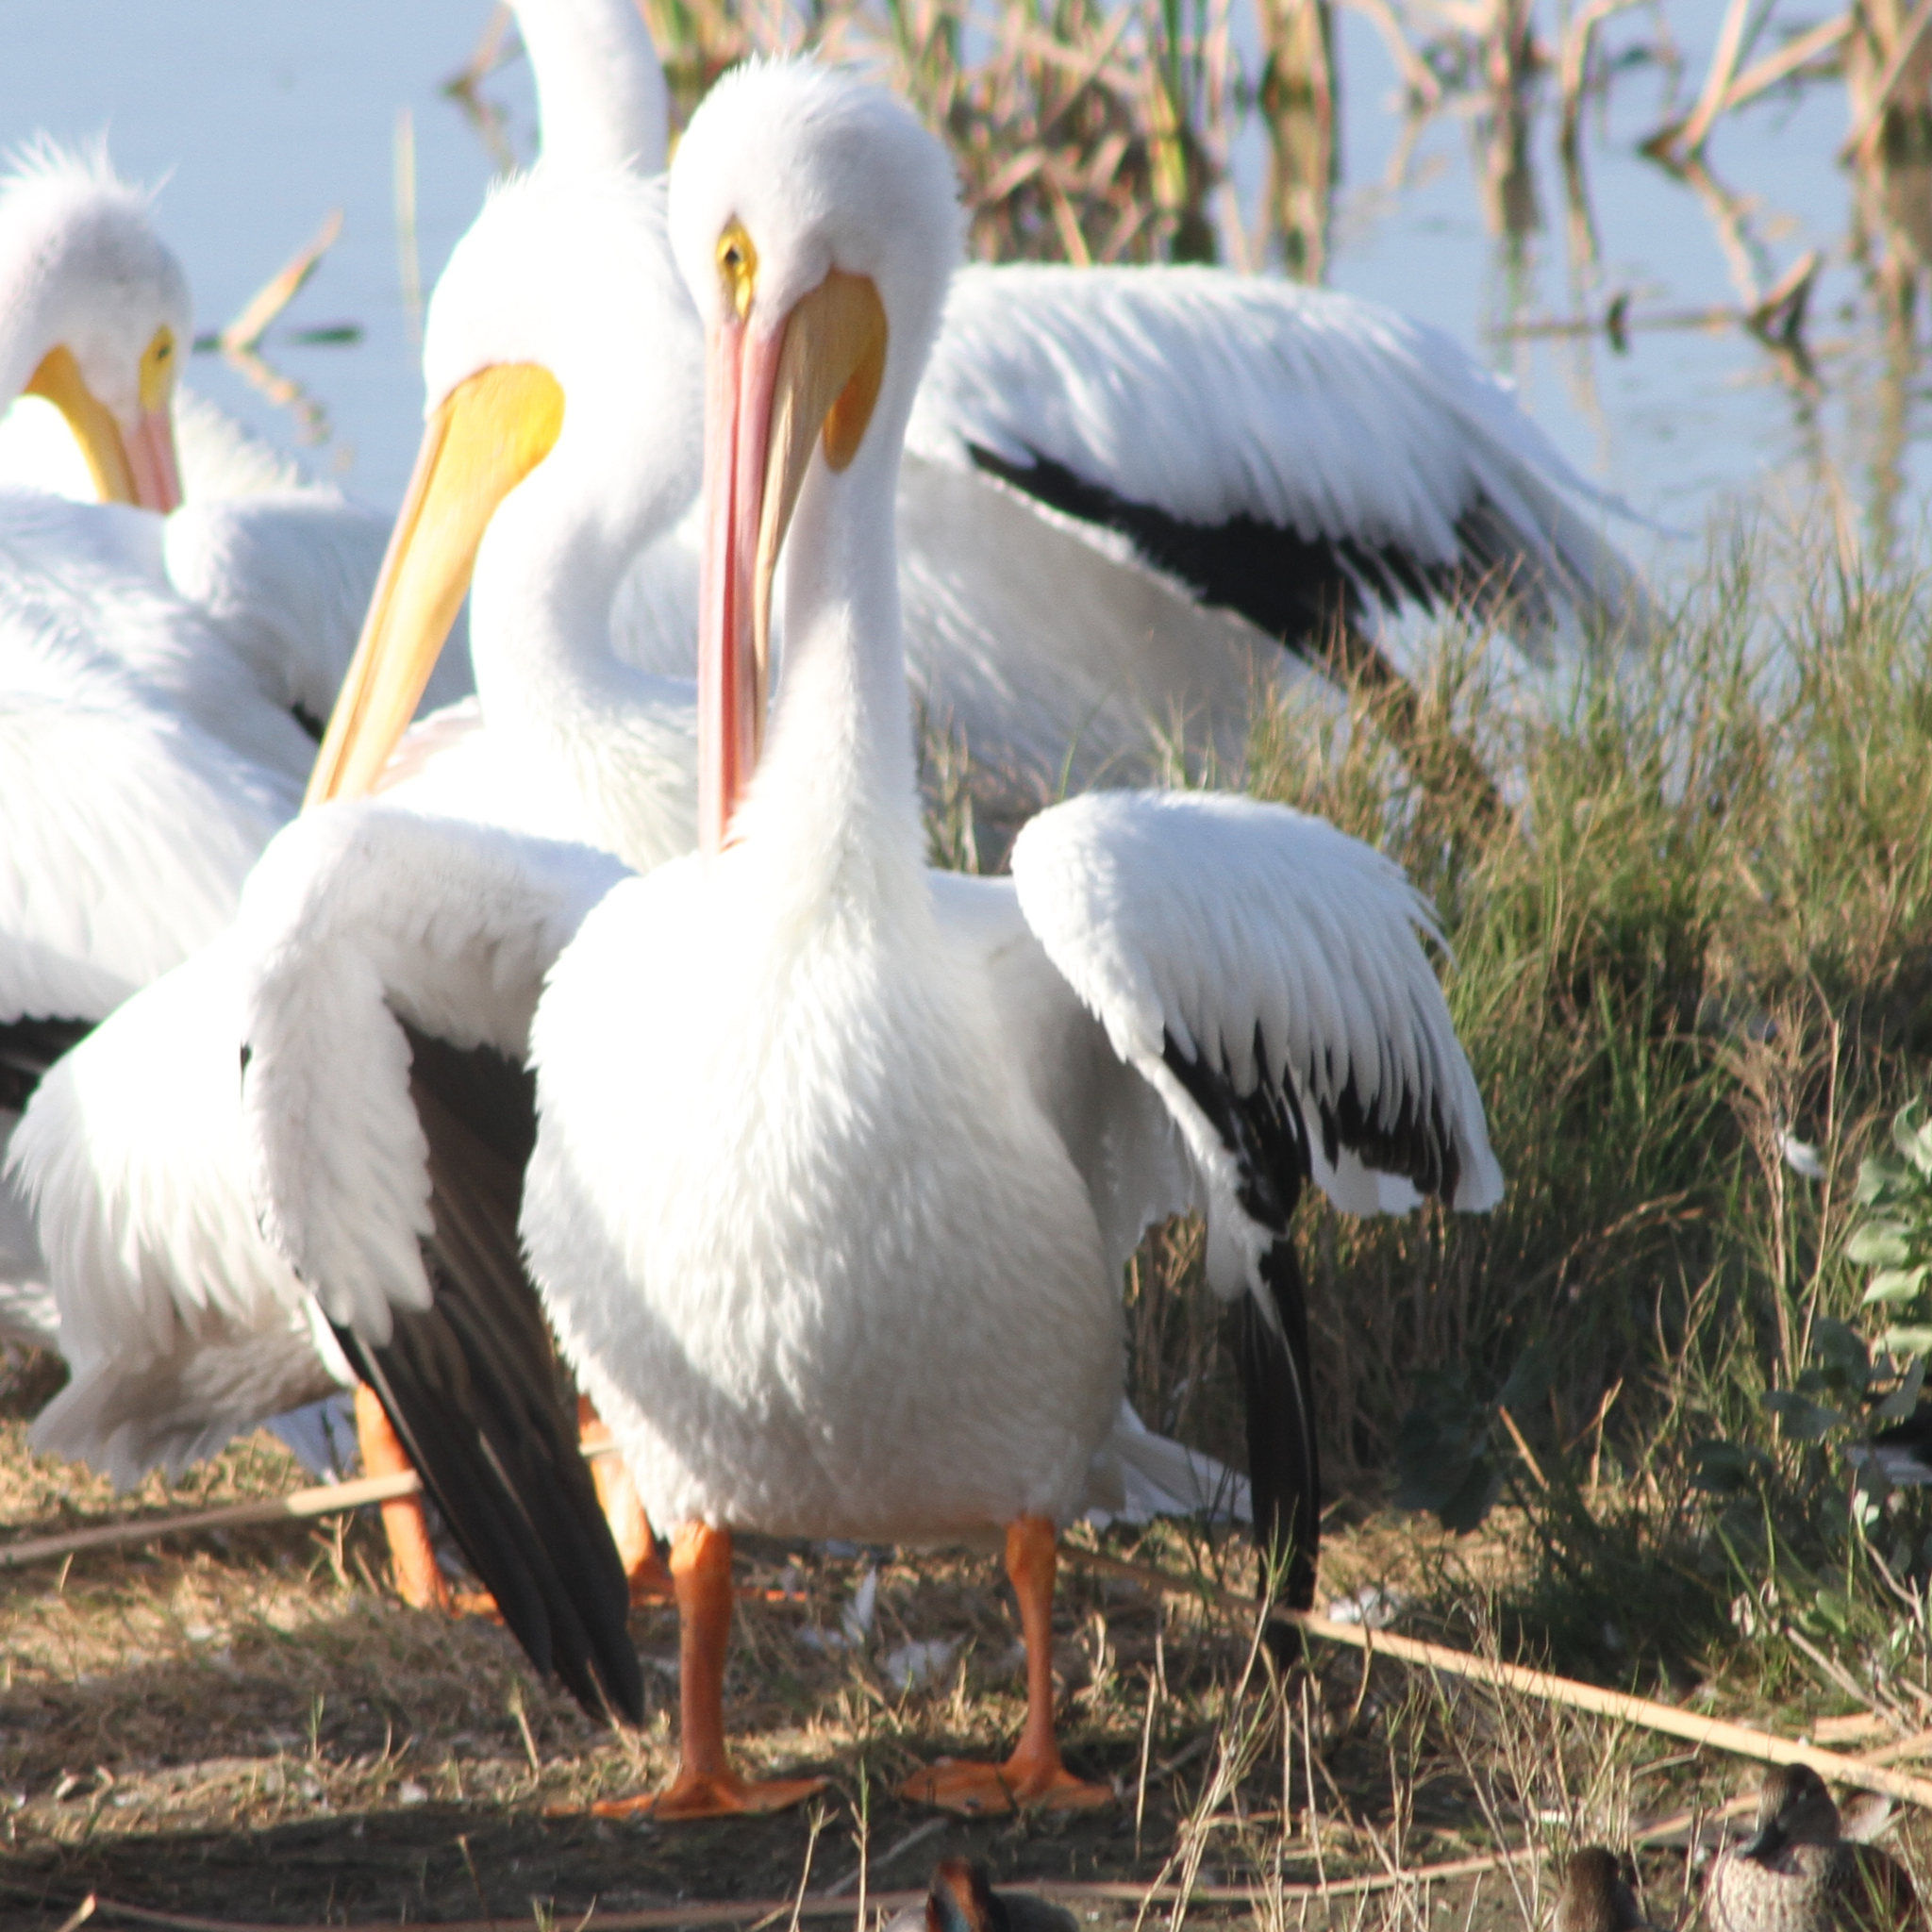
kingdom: Animalia
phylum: Chordata
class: Aves
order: Pelecaniformes
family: Pelecanidae
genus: Pelecanus
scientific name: Pelecanus erythrorhynchos
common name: American white pelican
